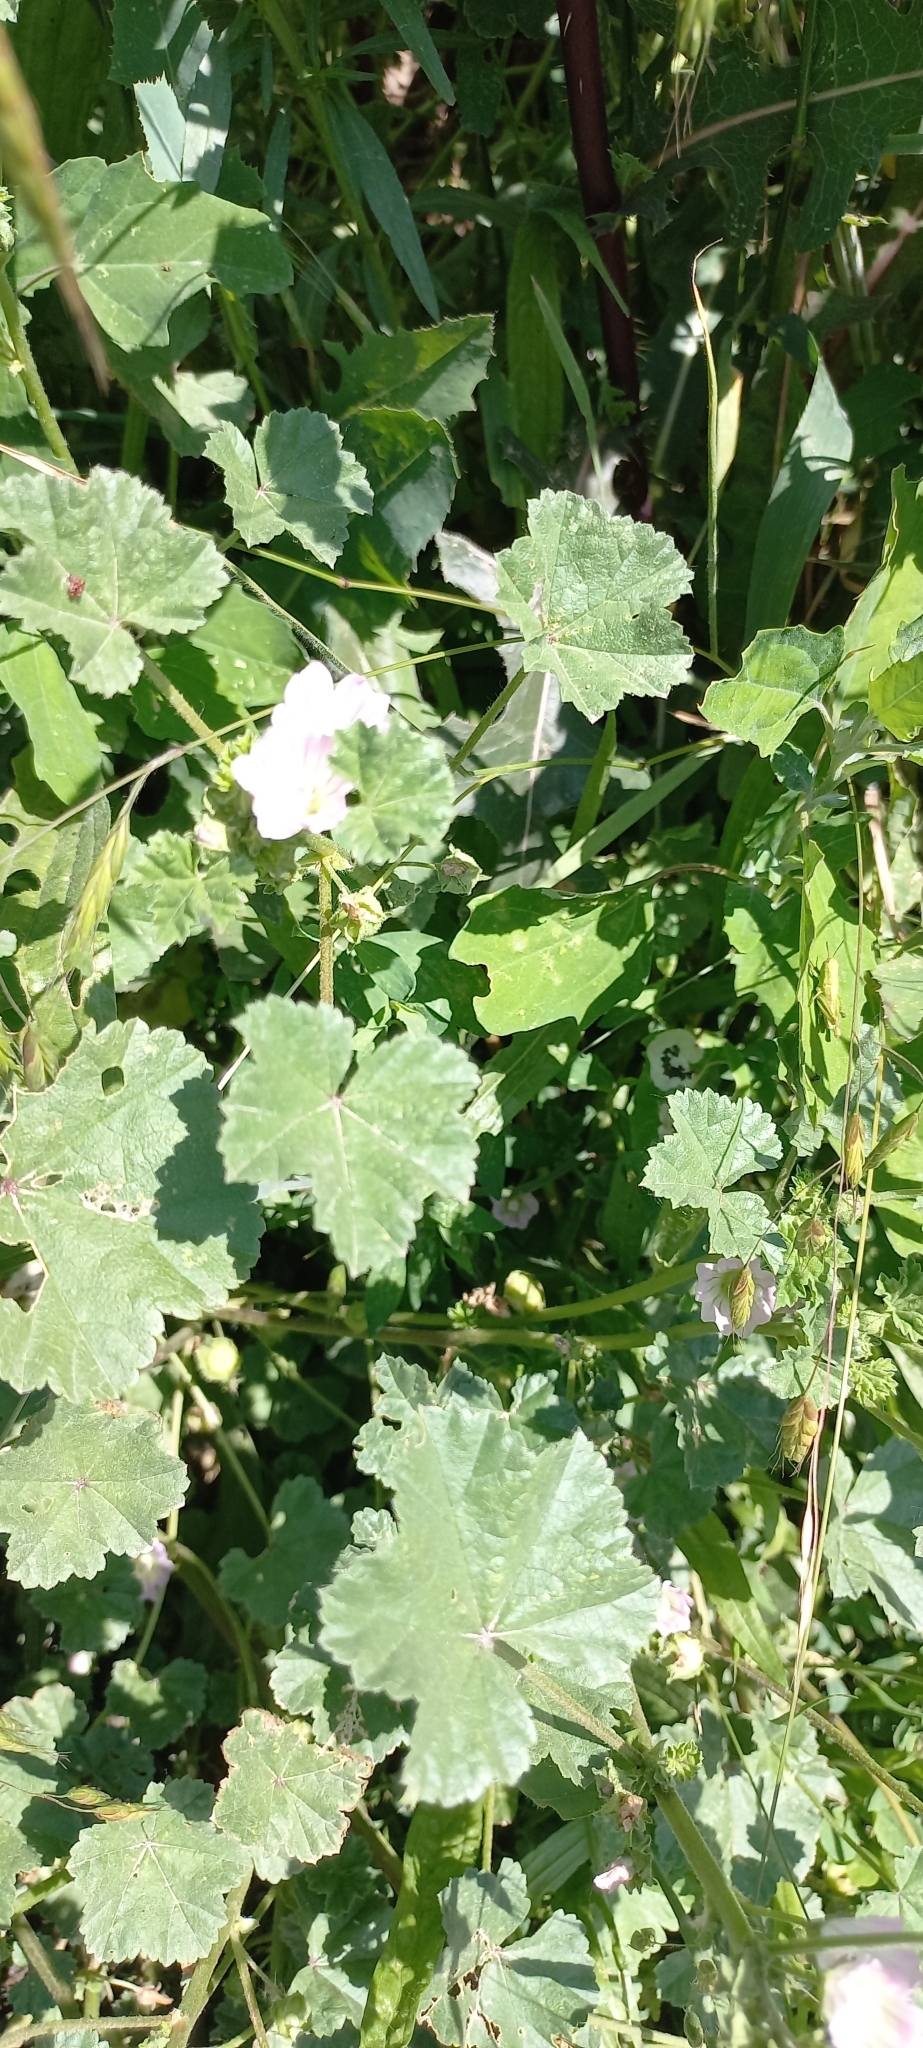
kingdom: Plantae
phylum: Tracheophyta
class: Magnoliopsida
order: Malvales
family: Malvaceae
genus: Malva
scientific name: Malva neglecta
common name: Common mallow
